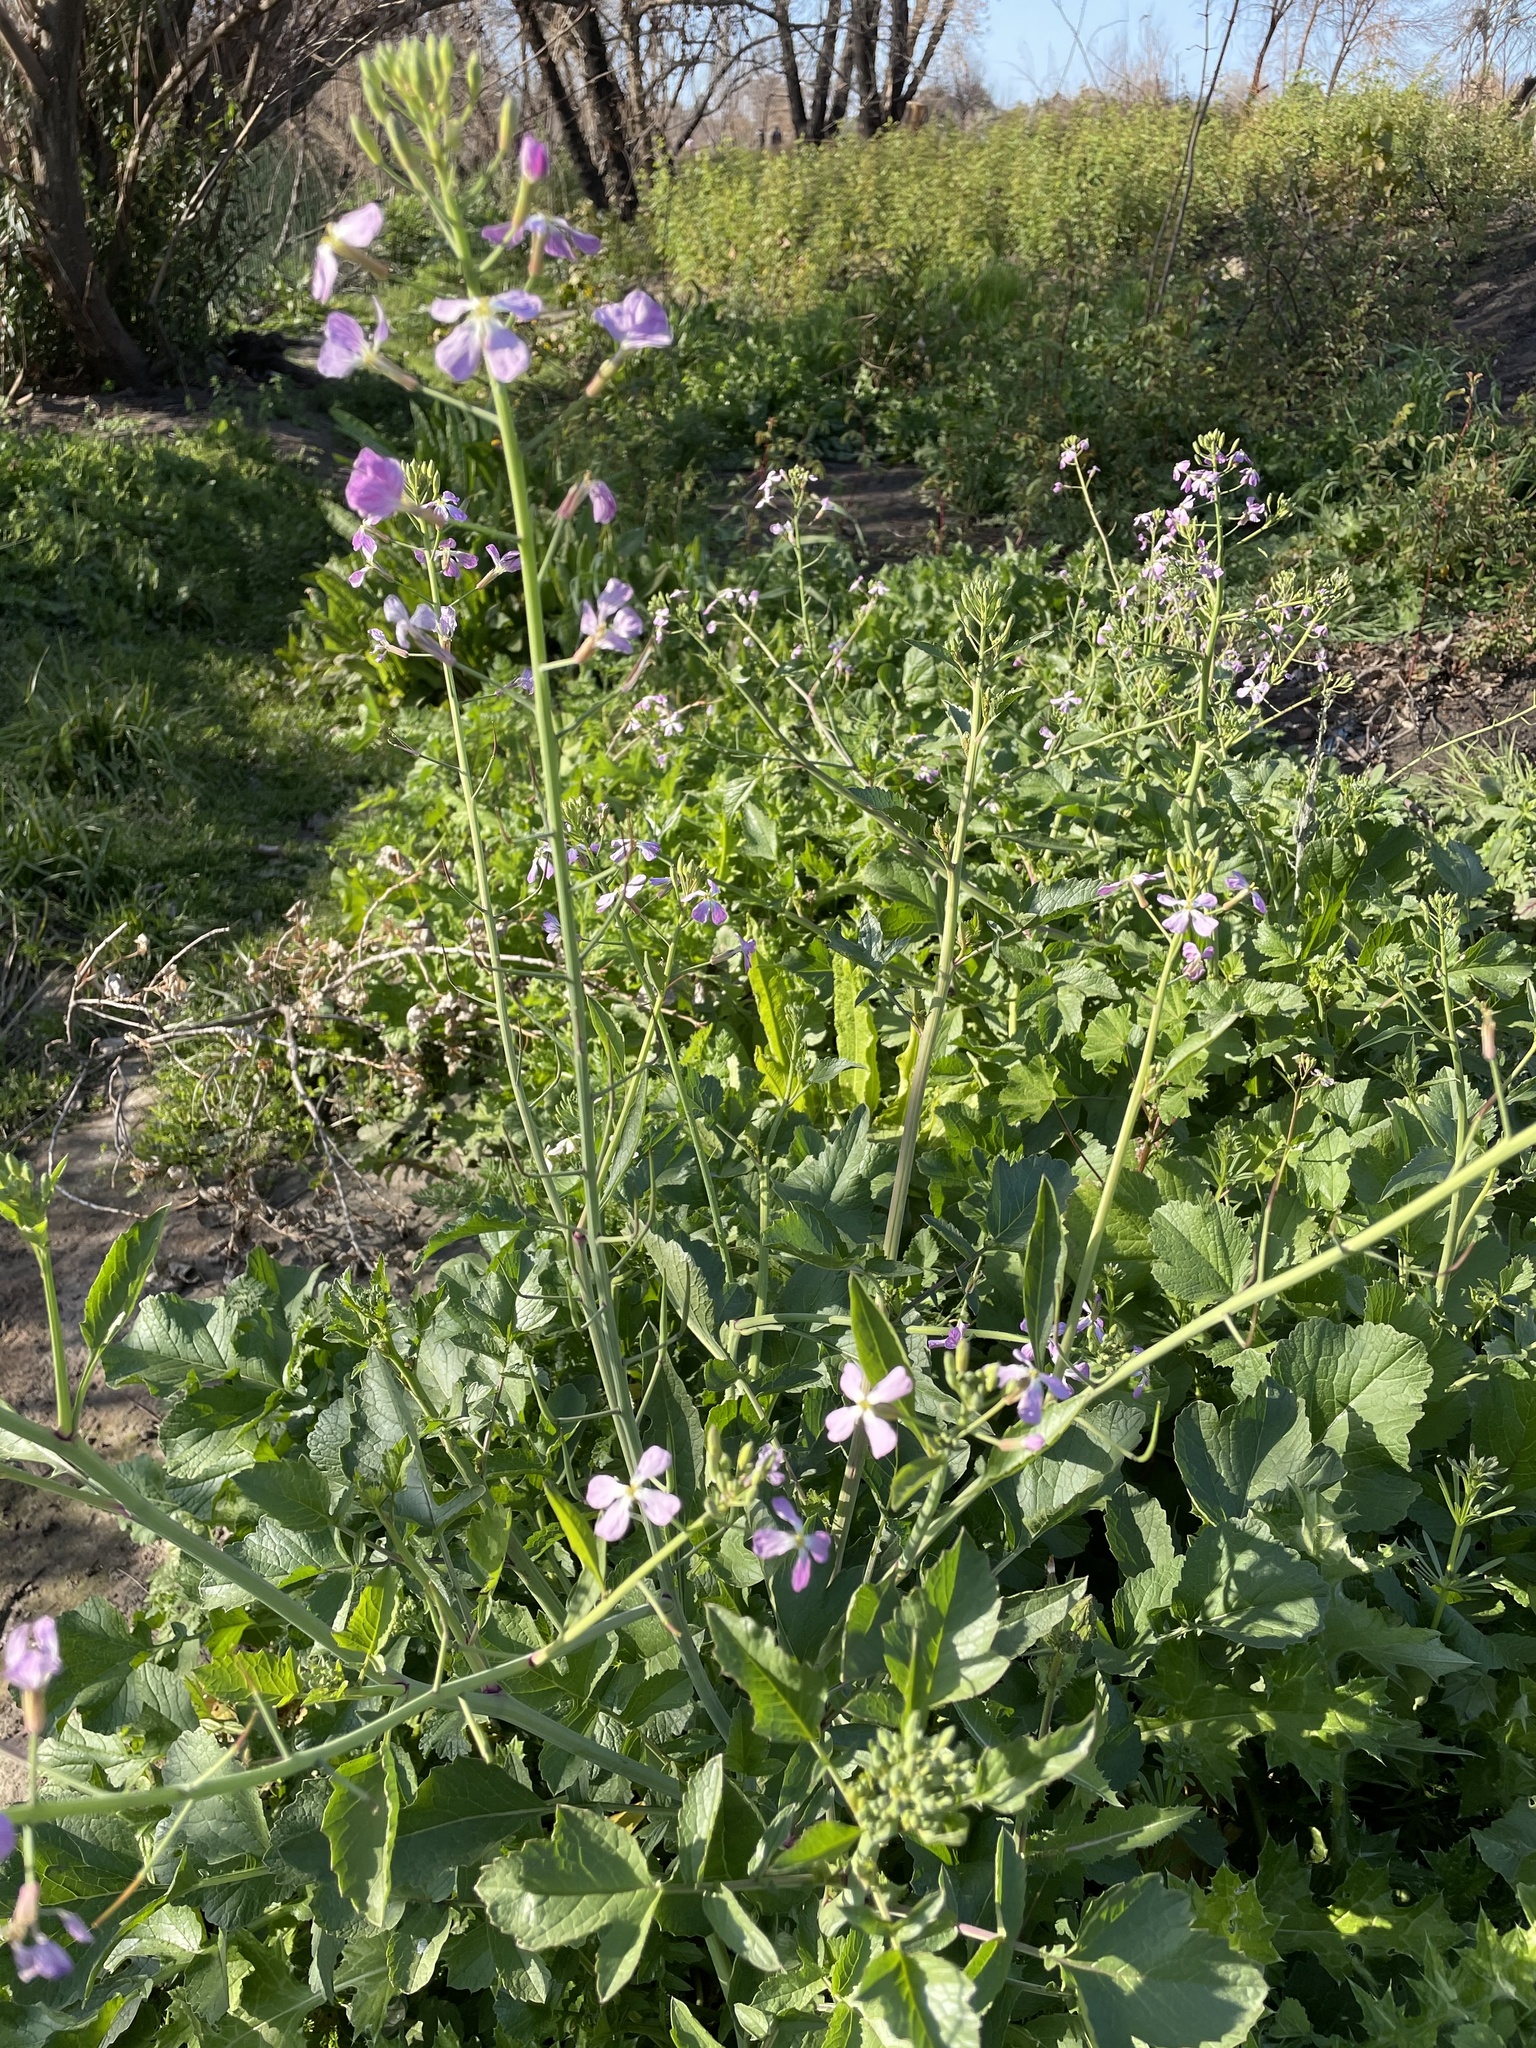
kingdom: Plantae
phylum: Tracheophyta
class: Magnoliopsida
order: Brassicales
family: Brassicaceae
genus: Raphanus
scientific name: Raphanus sativus
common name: Cultivated radish
